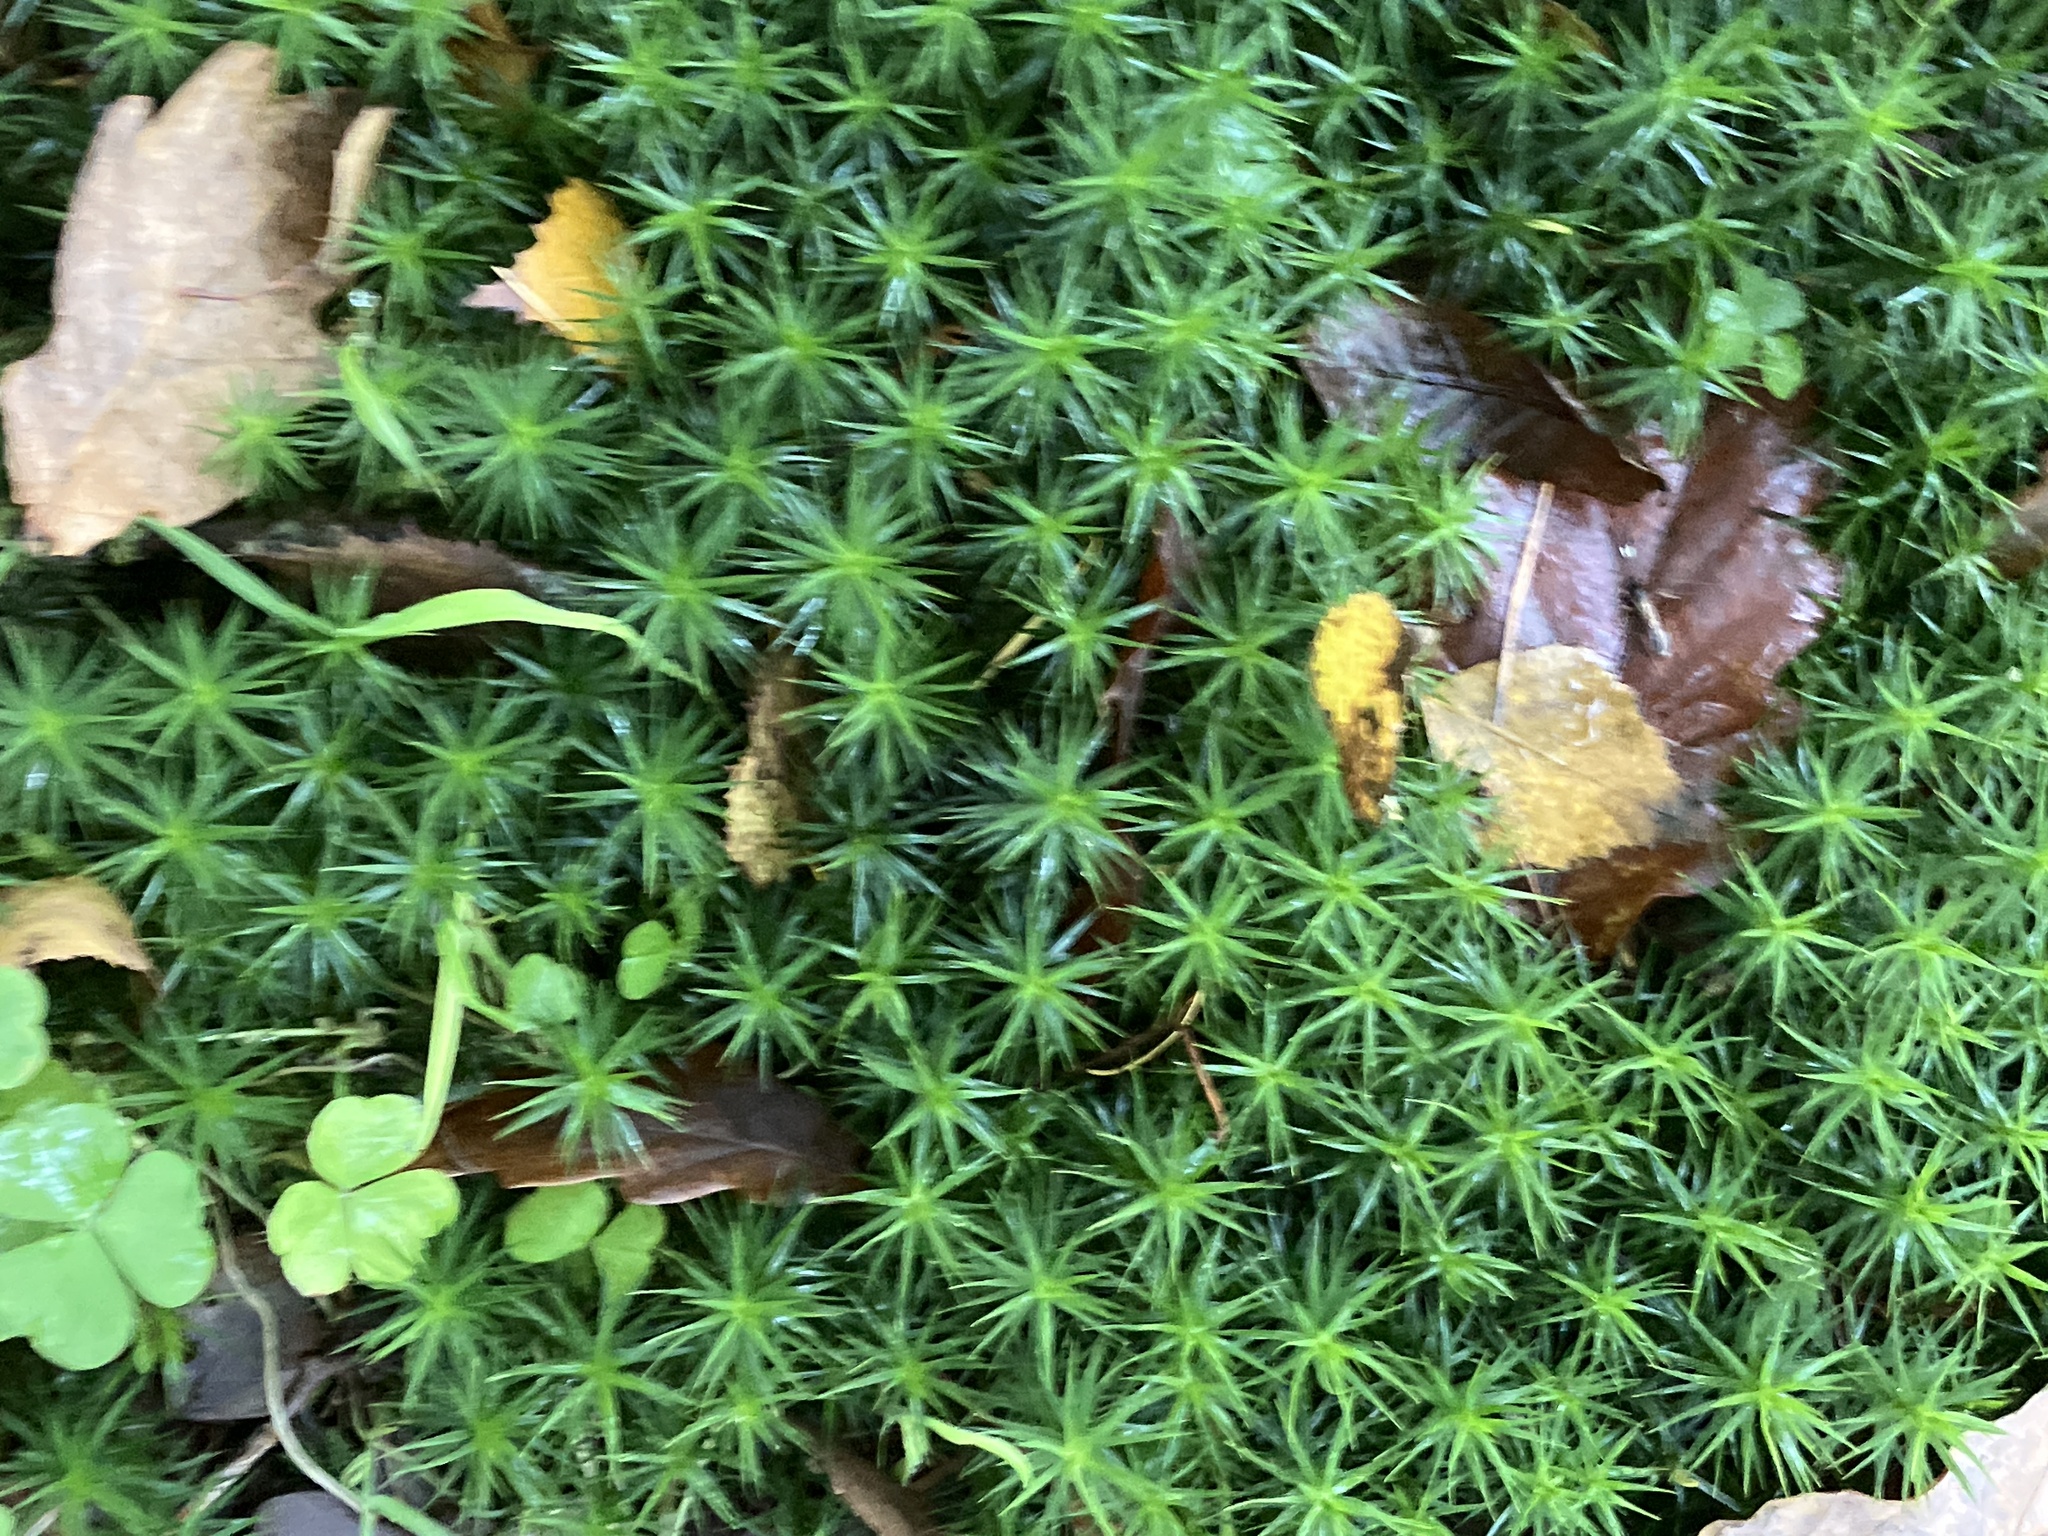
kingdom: Plantae
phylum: Bryophyta
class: Polytrichopsida
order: Polytrichales
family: Polytrichaceae
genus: Polytrichum
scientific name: Polytrichum formosum
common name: Bank haircap moss
